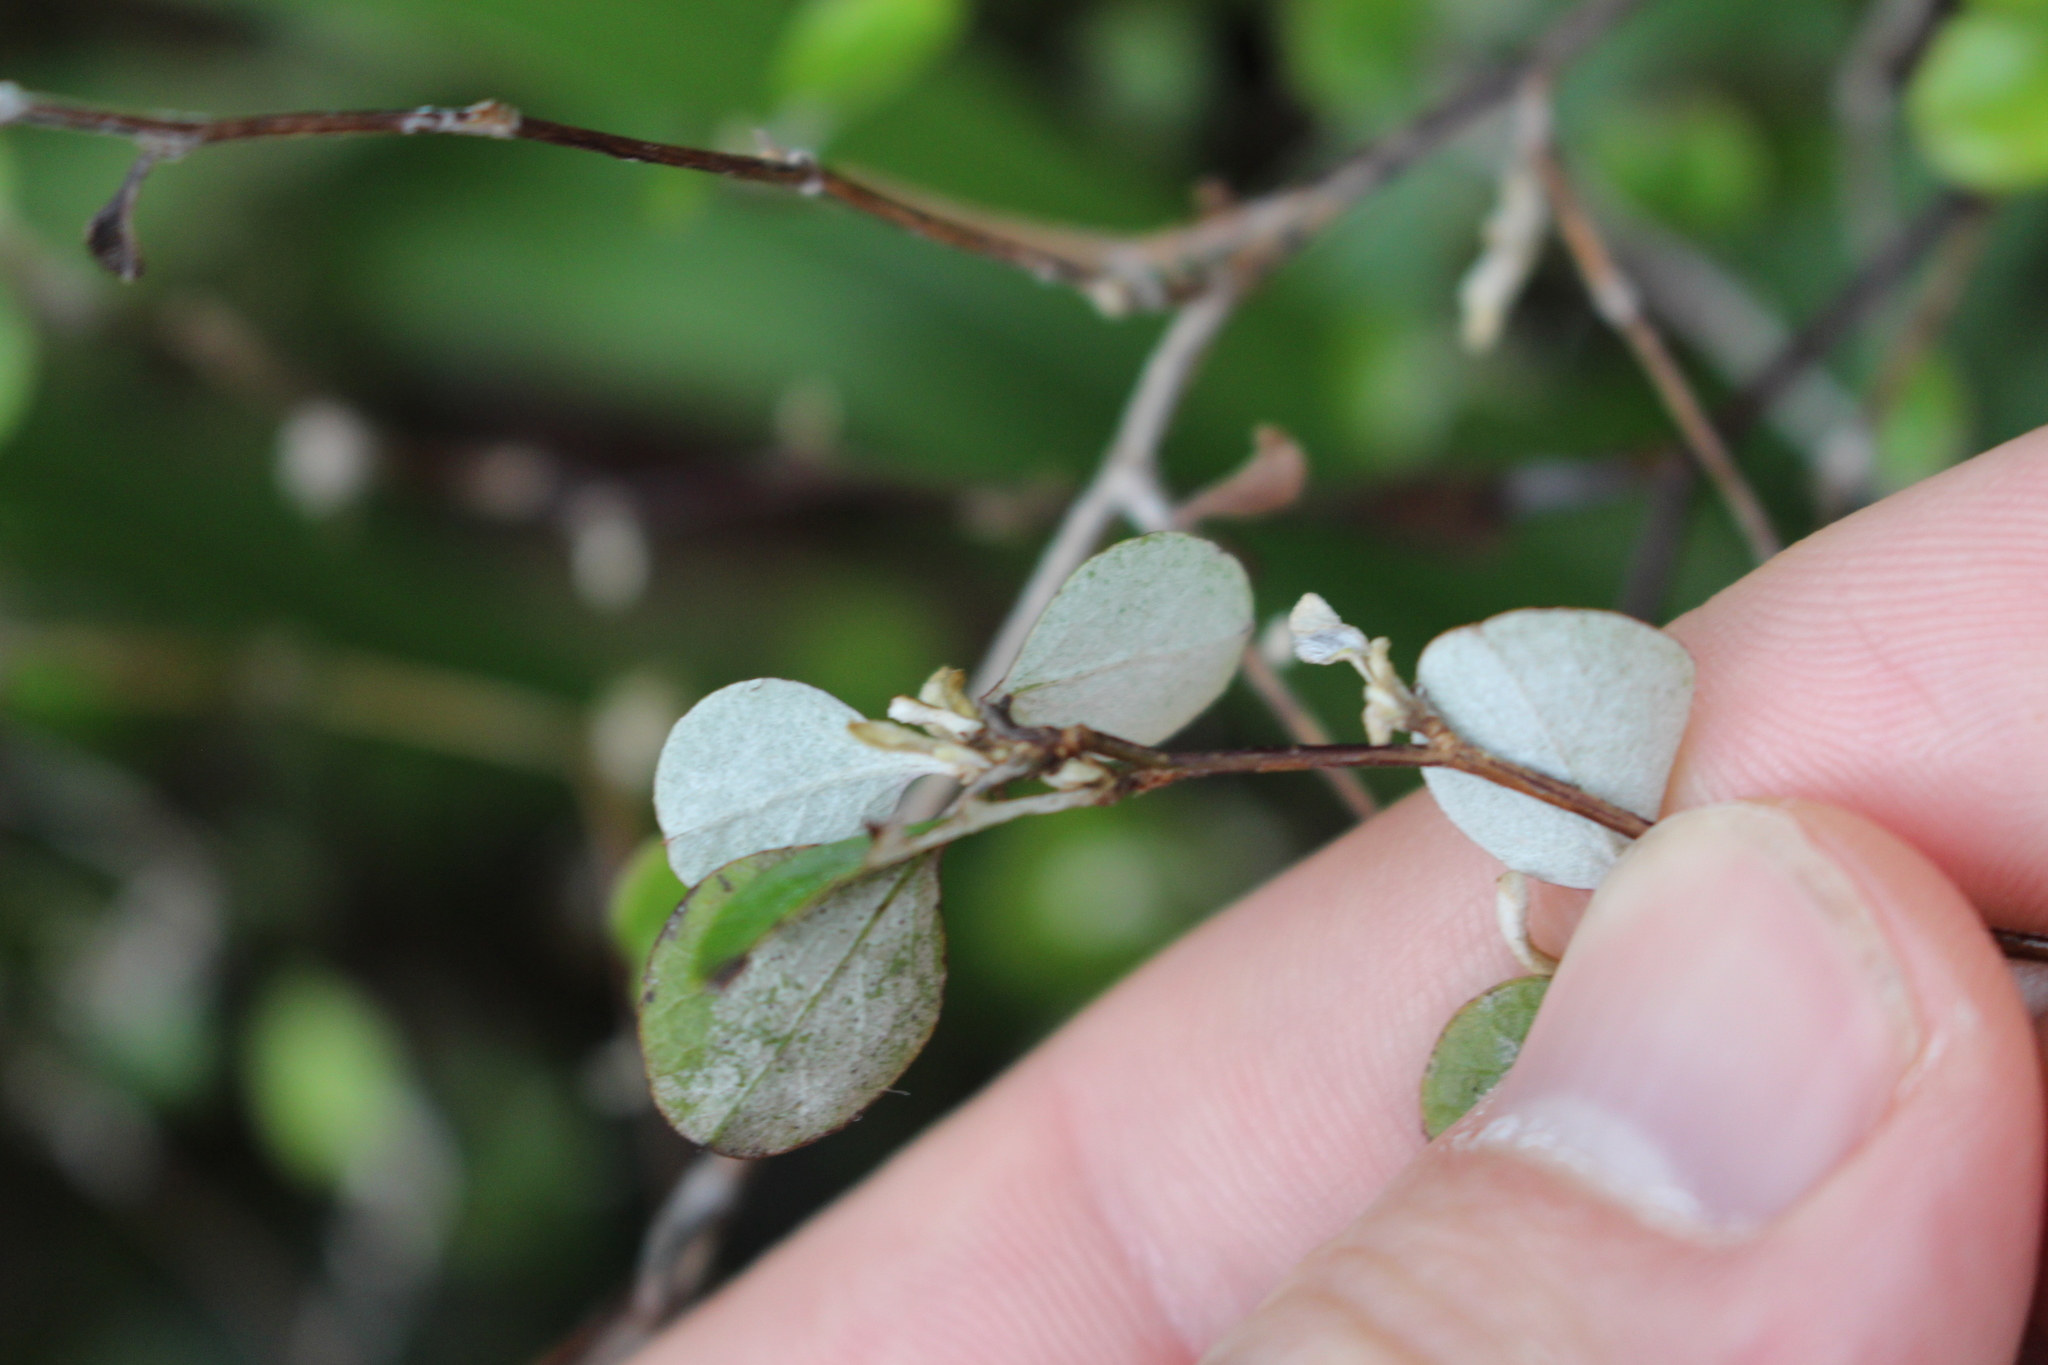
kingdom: Plantae
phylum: Tracheophyta
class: Magnoliopsida
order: Asterales
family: Asteraceae
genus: Ozothamnus
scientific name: Ozothamnus glomeratus
